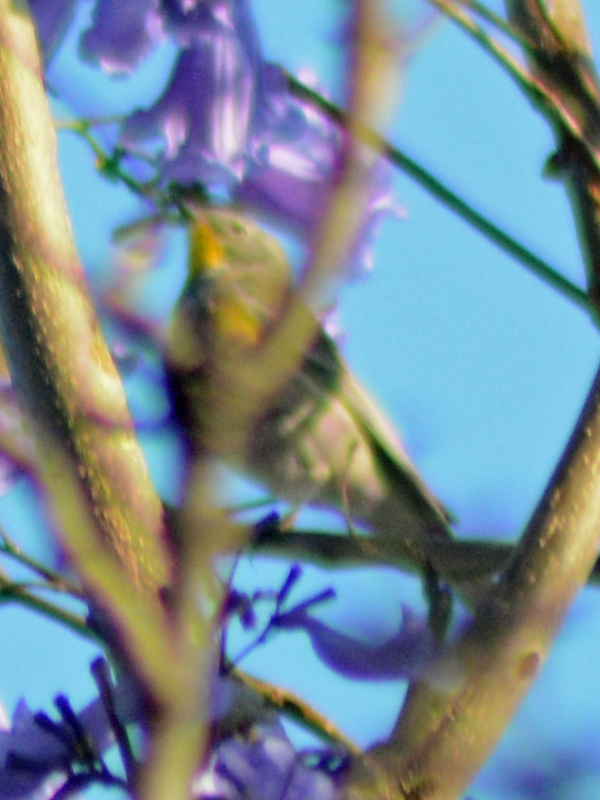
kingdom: Animalia
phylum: Chordata
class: Aves
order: Passeriformes
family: Parulidae
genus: Setophaga
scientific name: Setophaga auduboni
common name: Audubon's warbler
